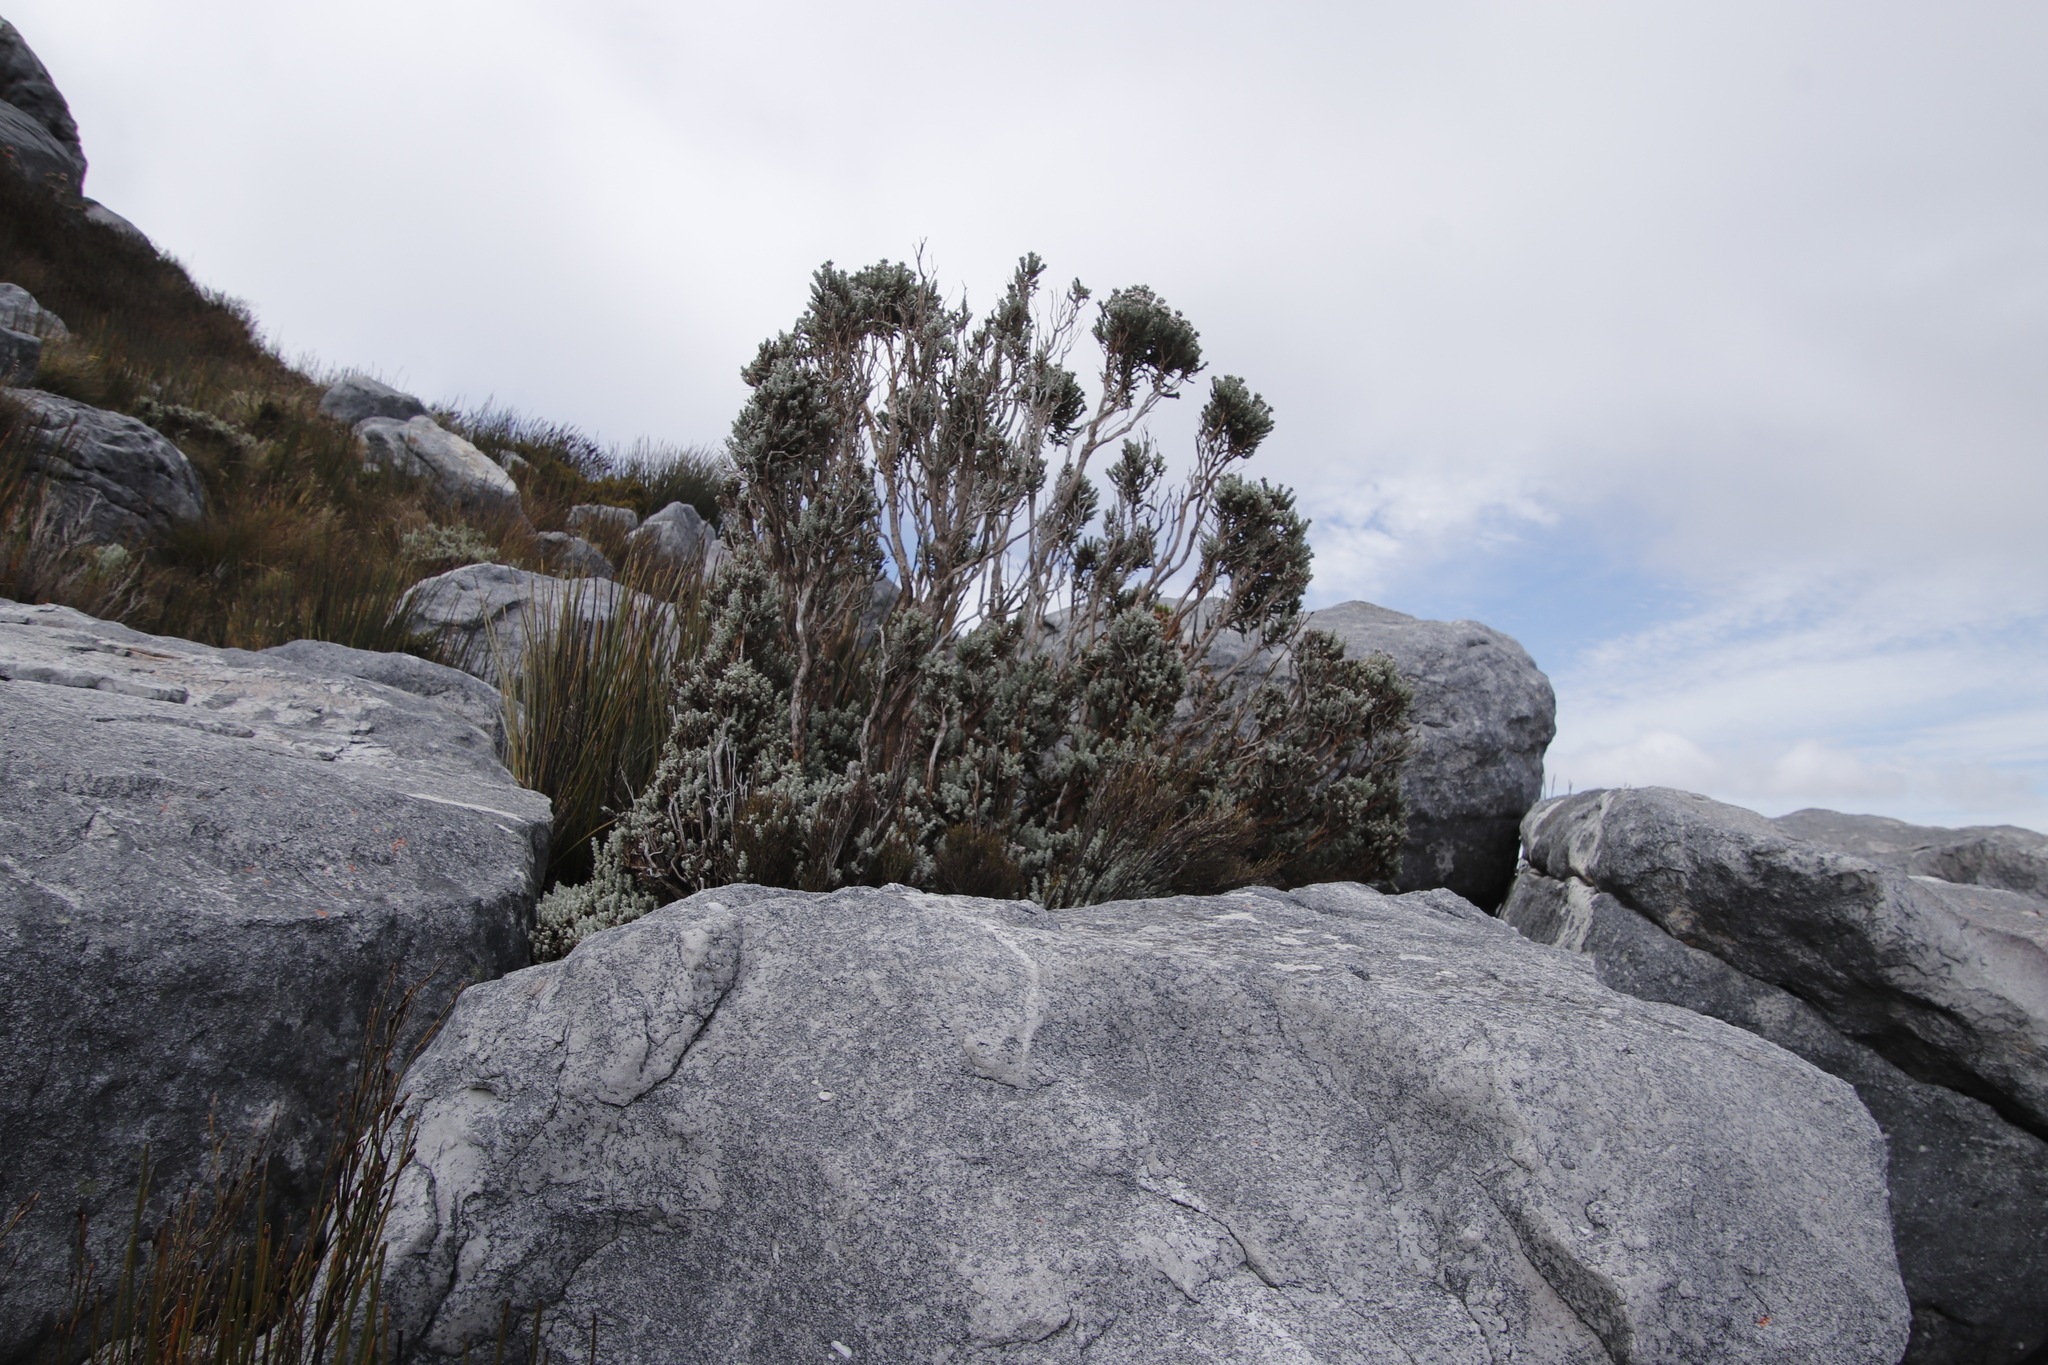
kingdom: Plantae
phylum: Tracheophyta
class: Magnoliopsida
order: Asterales
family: Asteraceae
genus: Atrichantha
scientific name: Atrichantha gemmifera
